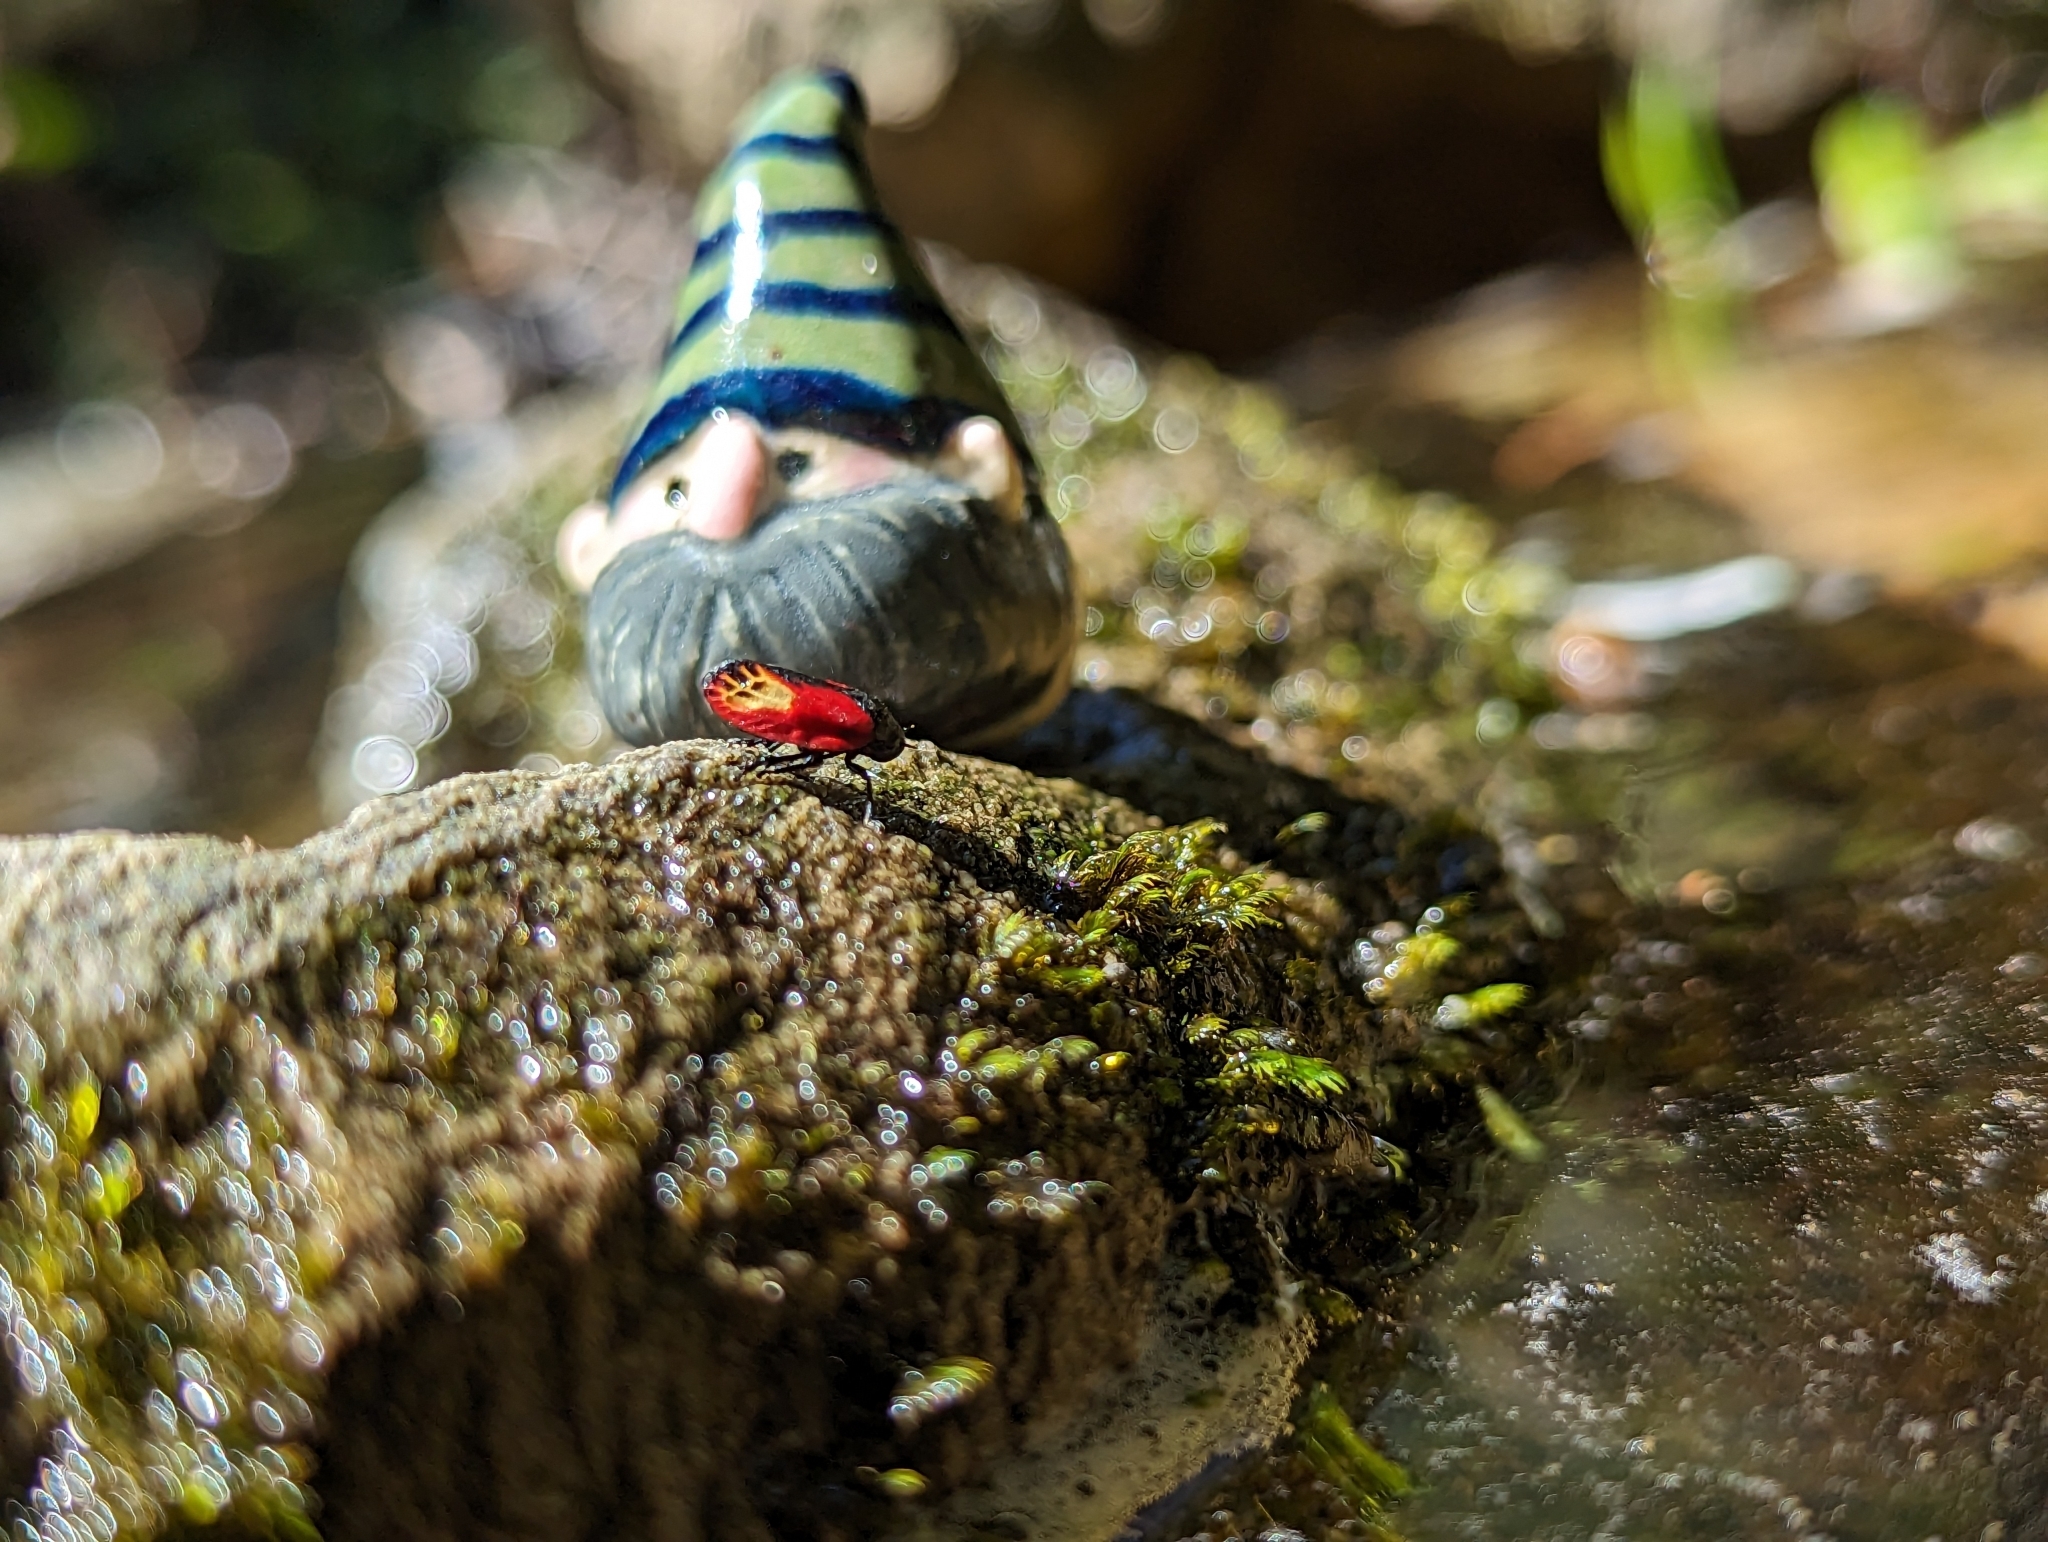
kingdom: Animalia
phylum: Arthropoda
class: Insecta
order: Hemiptera
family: Cercopidae
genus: Rhinaulax
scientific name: Rhinaulax analis
